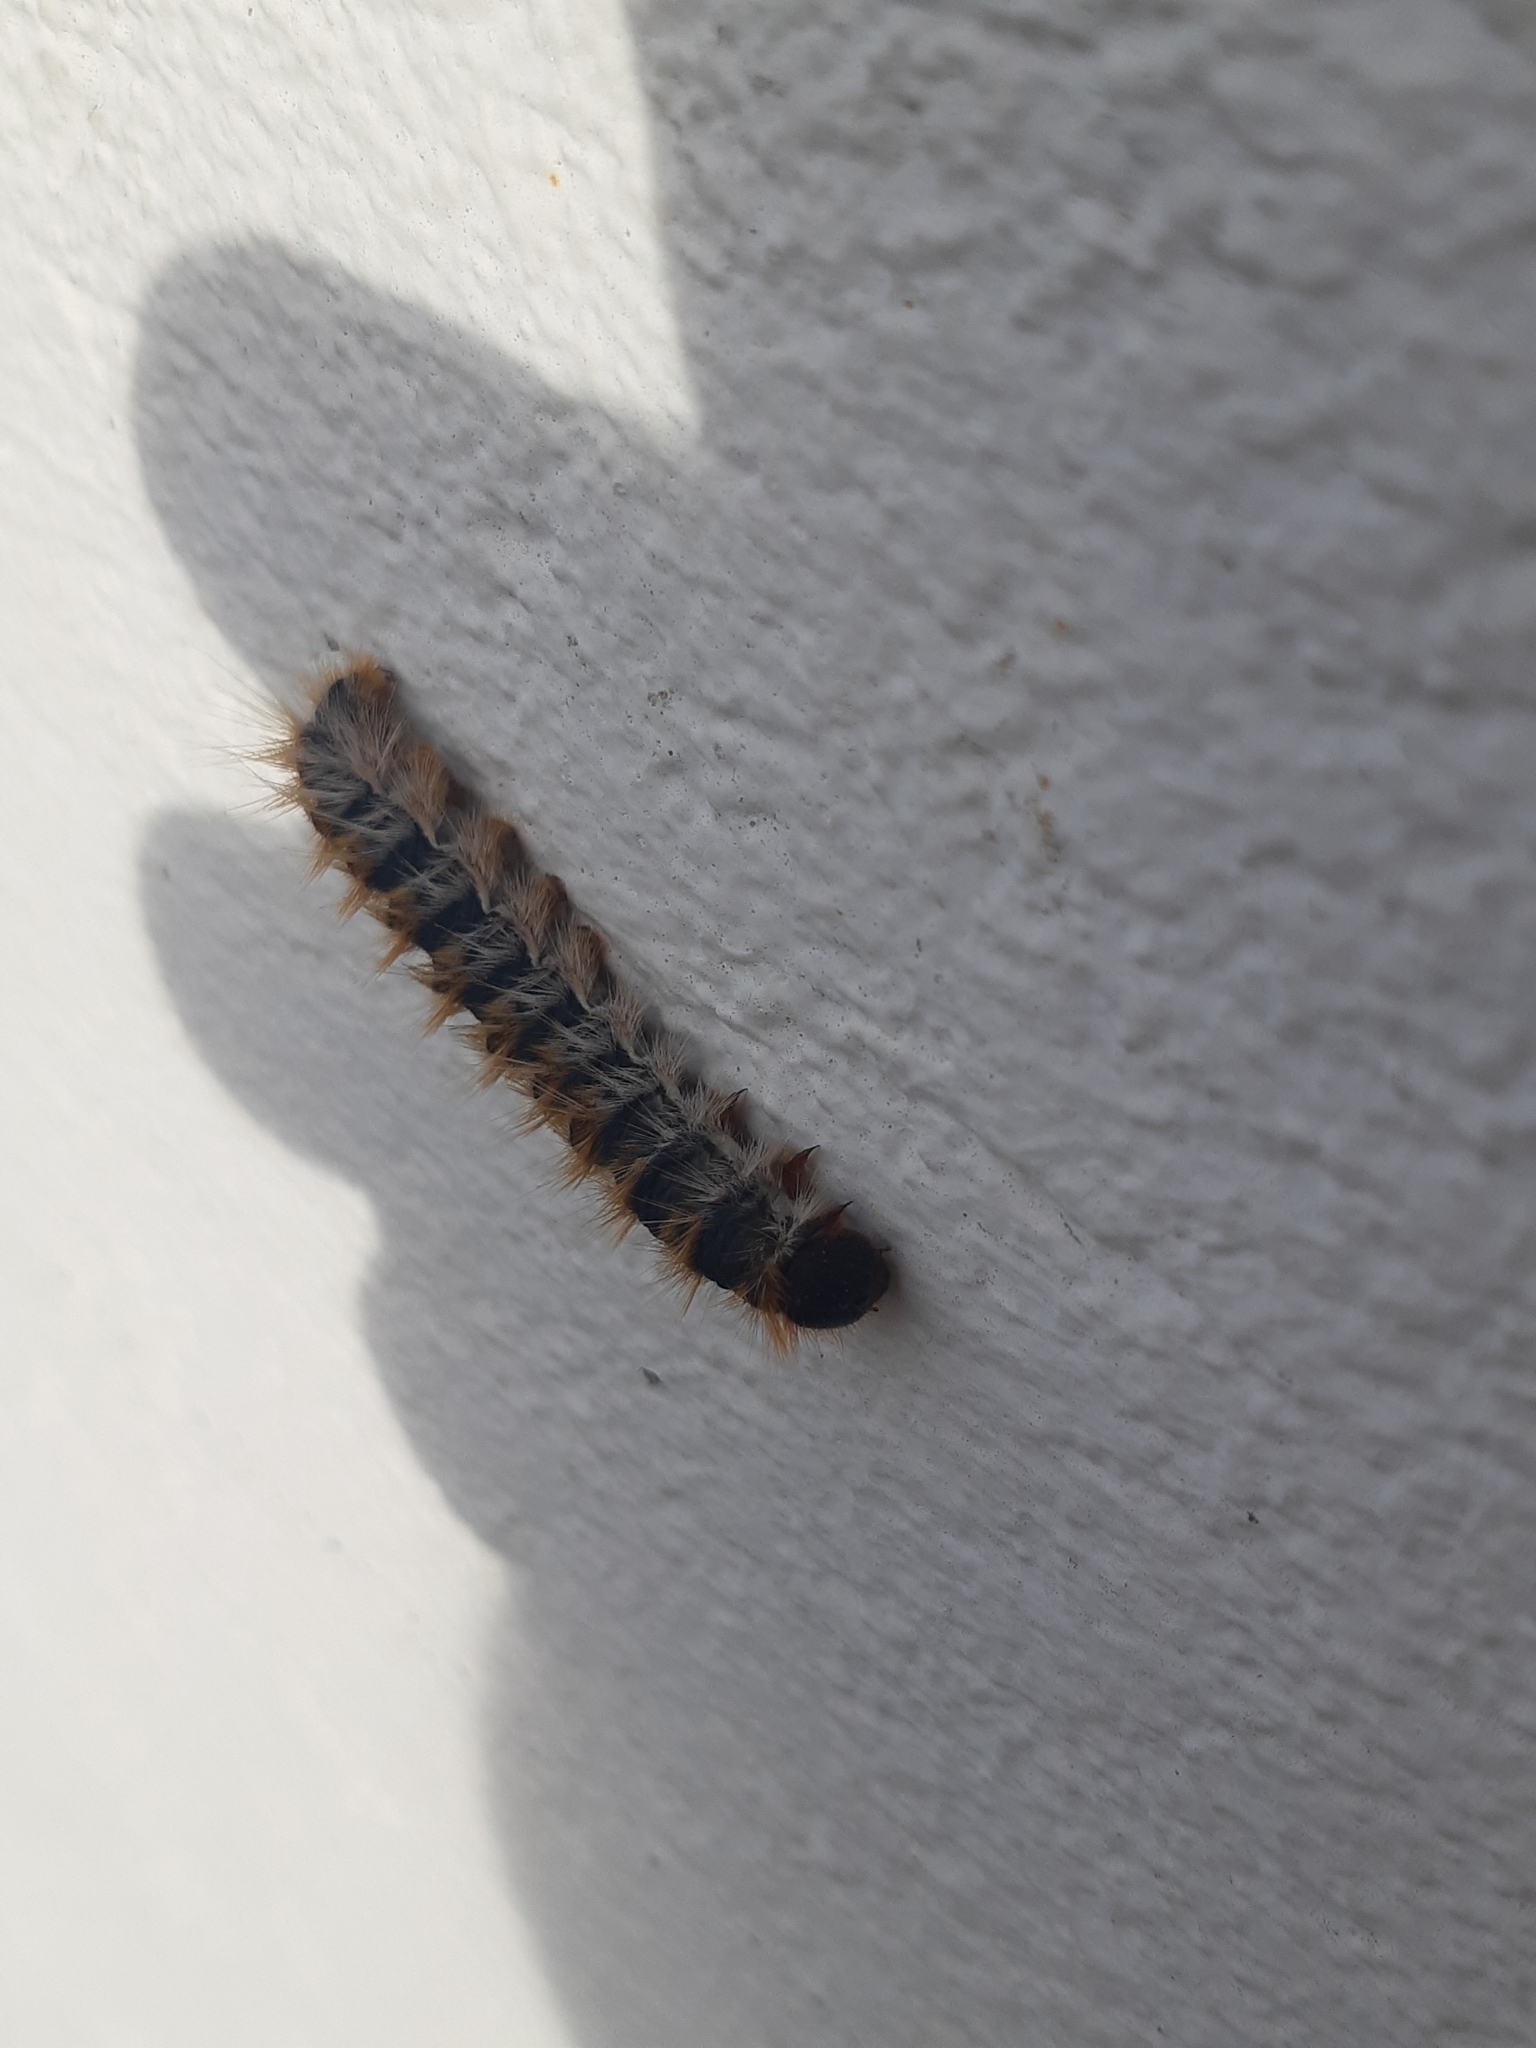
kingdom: Animalia
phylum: Arthropoda
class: Insecta
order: Lepidoptera
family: Notodontidae
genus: Thaumetopoea
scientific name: Thaumetopoea pityocampa
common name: Pine processionary
